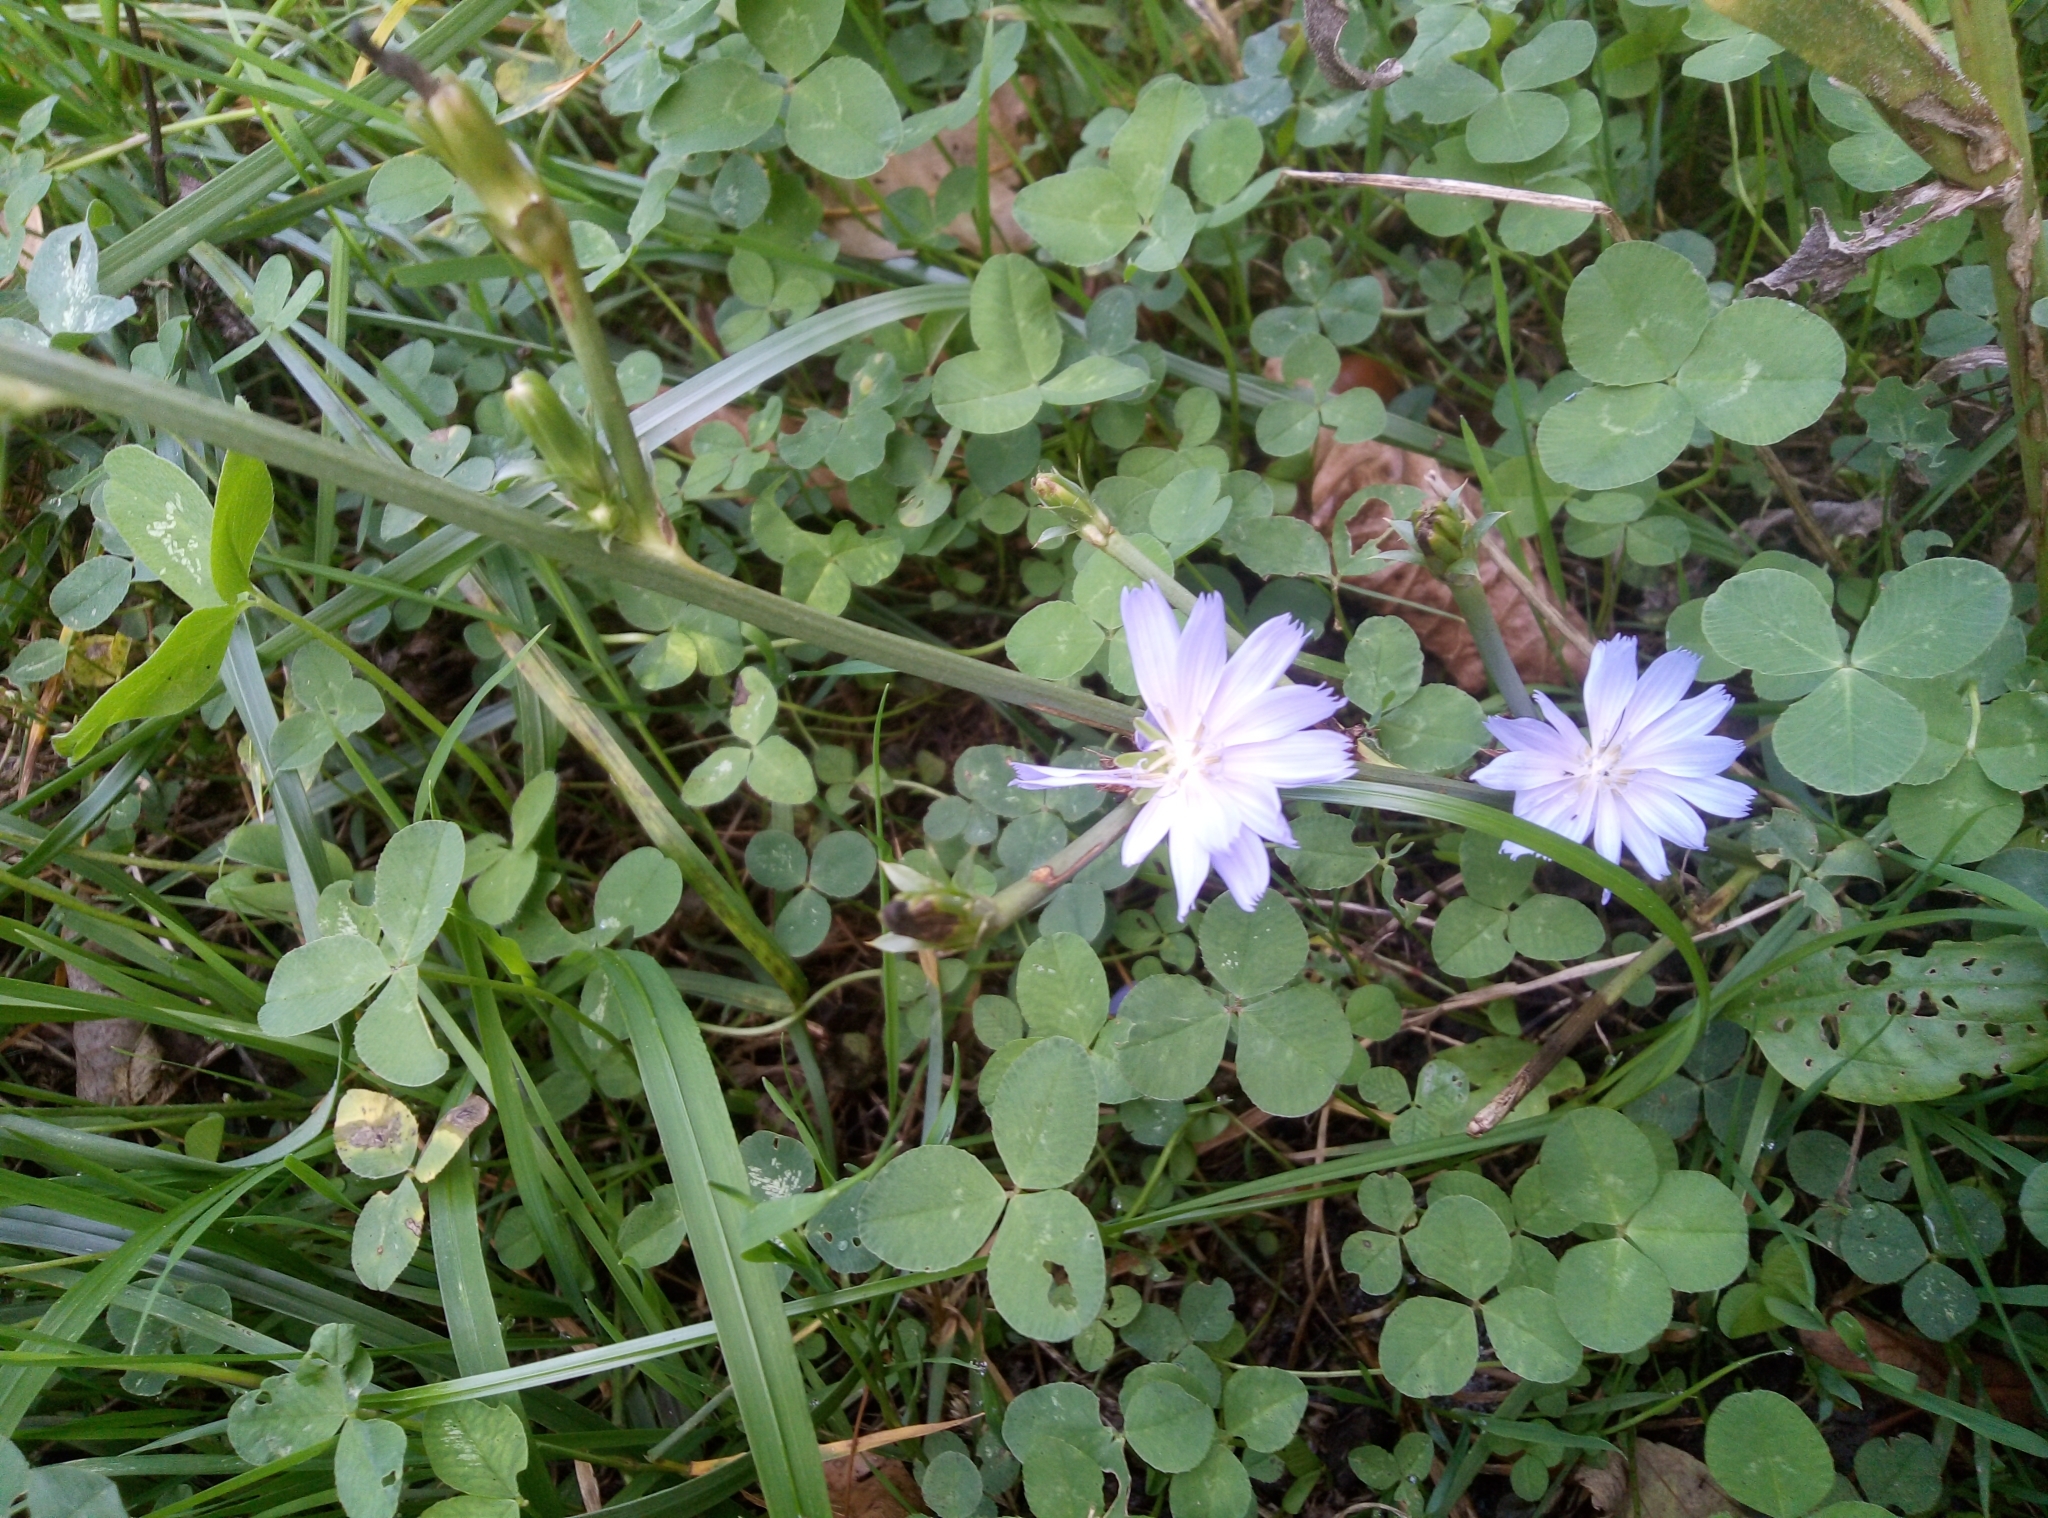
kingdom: Plantae
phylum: Tracheophyta
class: Magnoliopsida
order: Asterales
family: Asteraceae
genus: Cichorium
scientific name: Cichorium intybus
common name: Chicory
